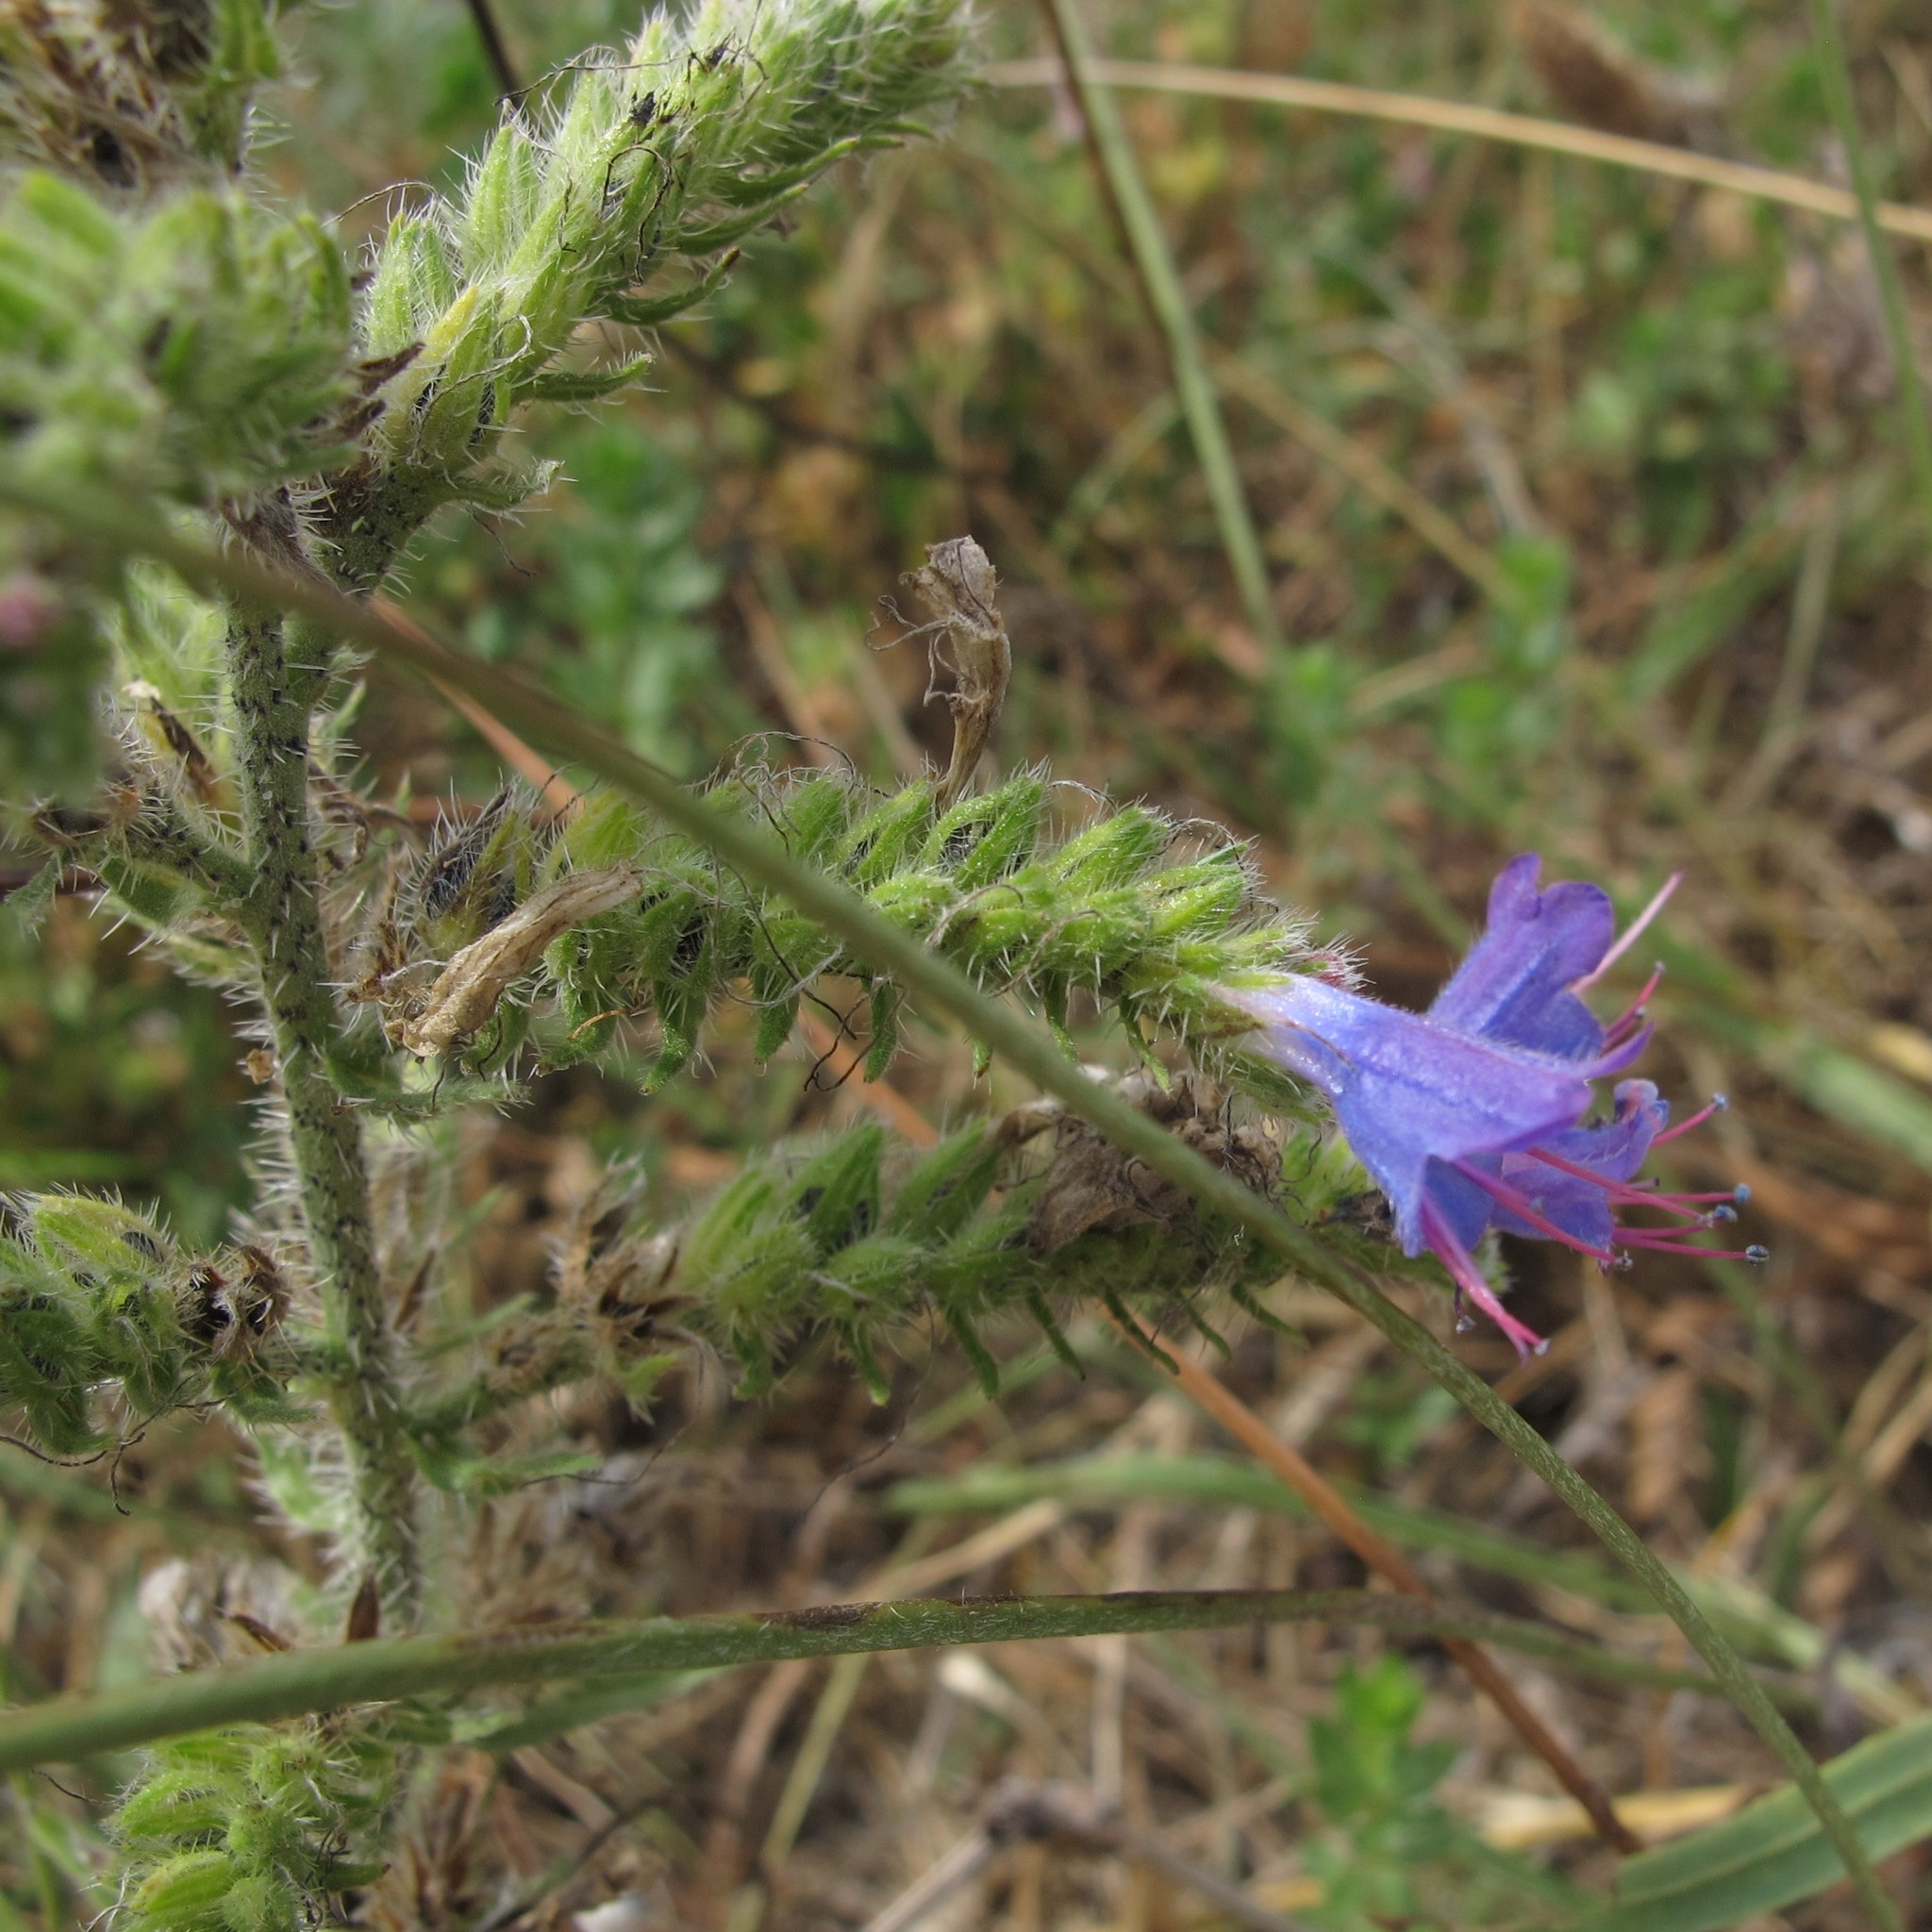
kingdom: Plantae
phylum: Tracheophyta
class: Magnoliopsida
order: Boraginales
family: Boraginaceae
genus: Echium
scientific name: Echium vulgare
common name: Common viper's bugloss
